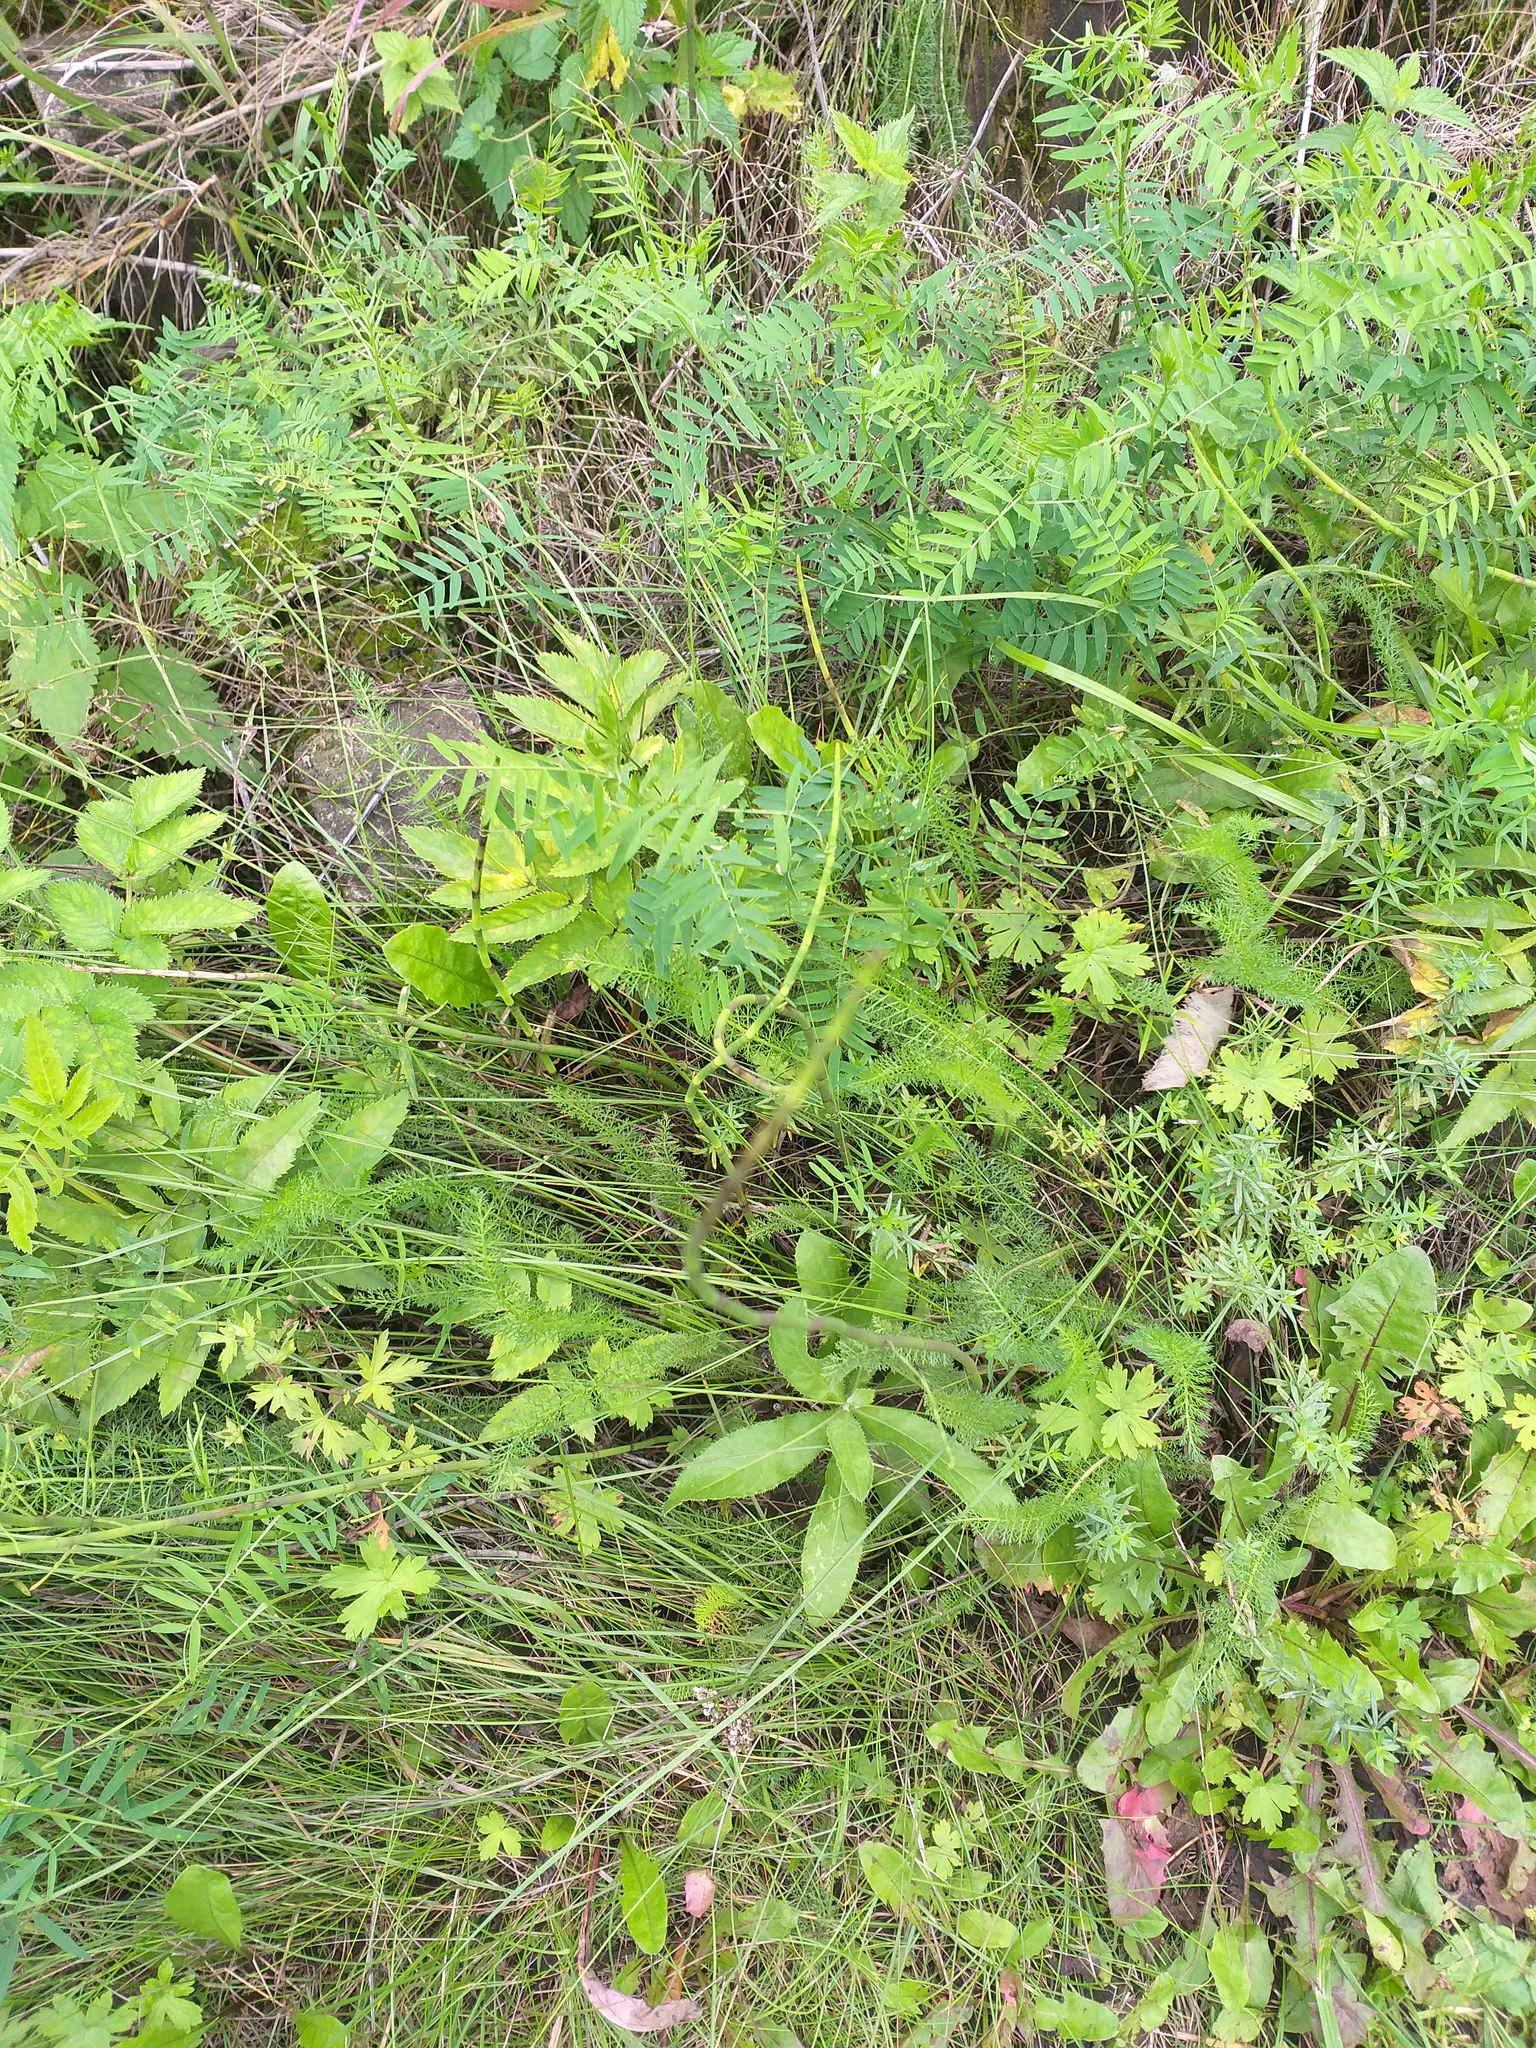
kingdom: Plantae
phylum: Tracheophyta
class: Polypodiopsida
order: Equisetales
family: Equisetaceae
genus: Equisetum
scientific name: Equisetum fluviatile
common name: Water horsetail
